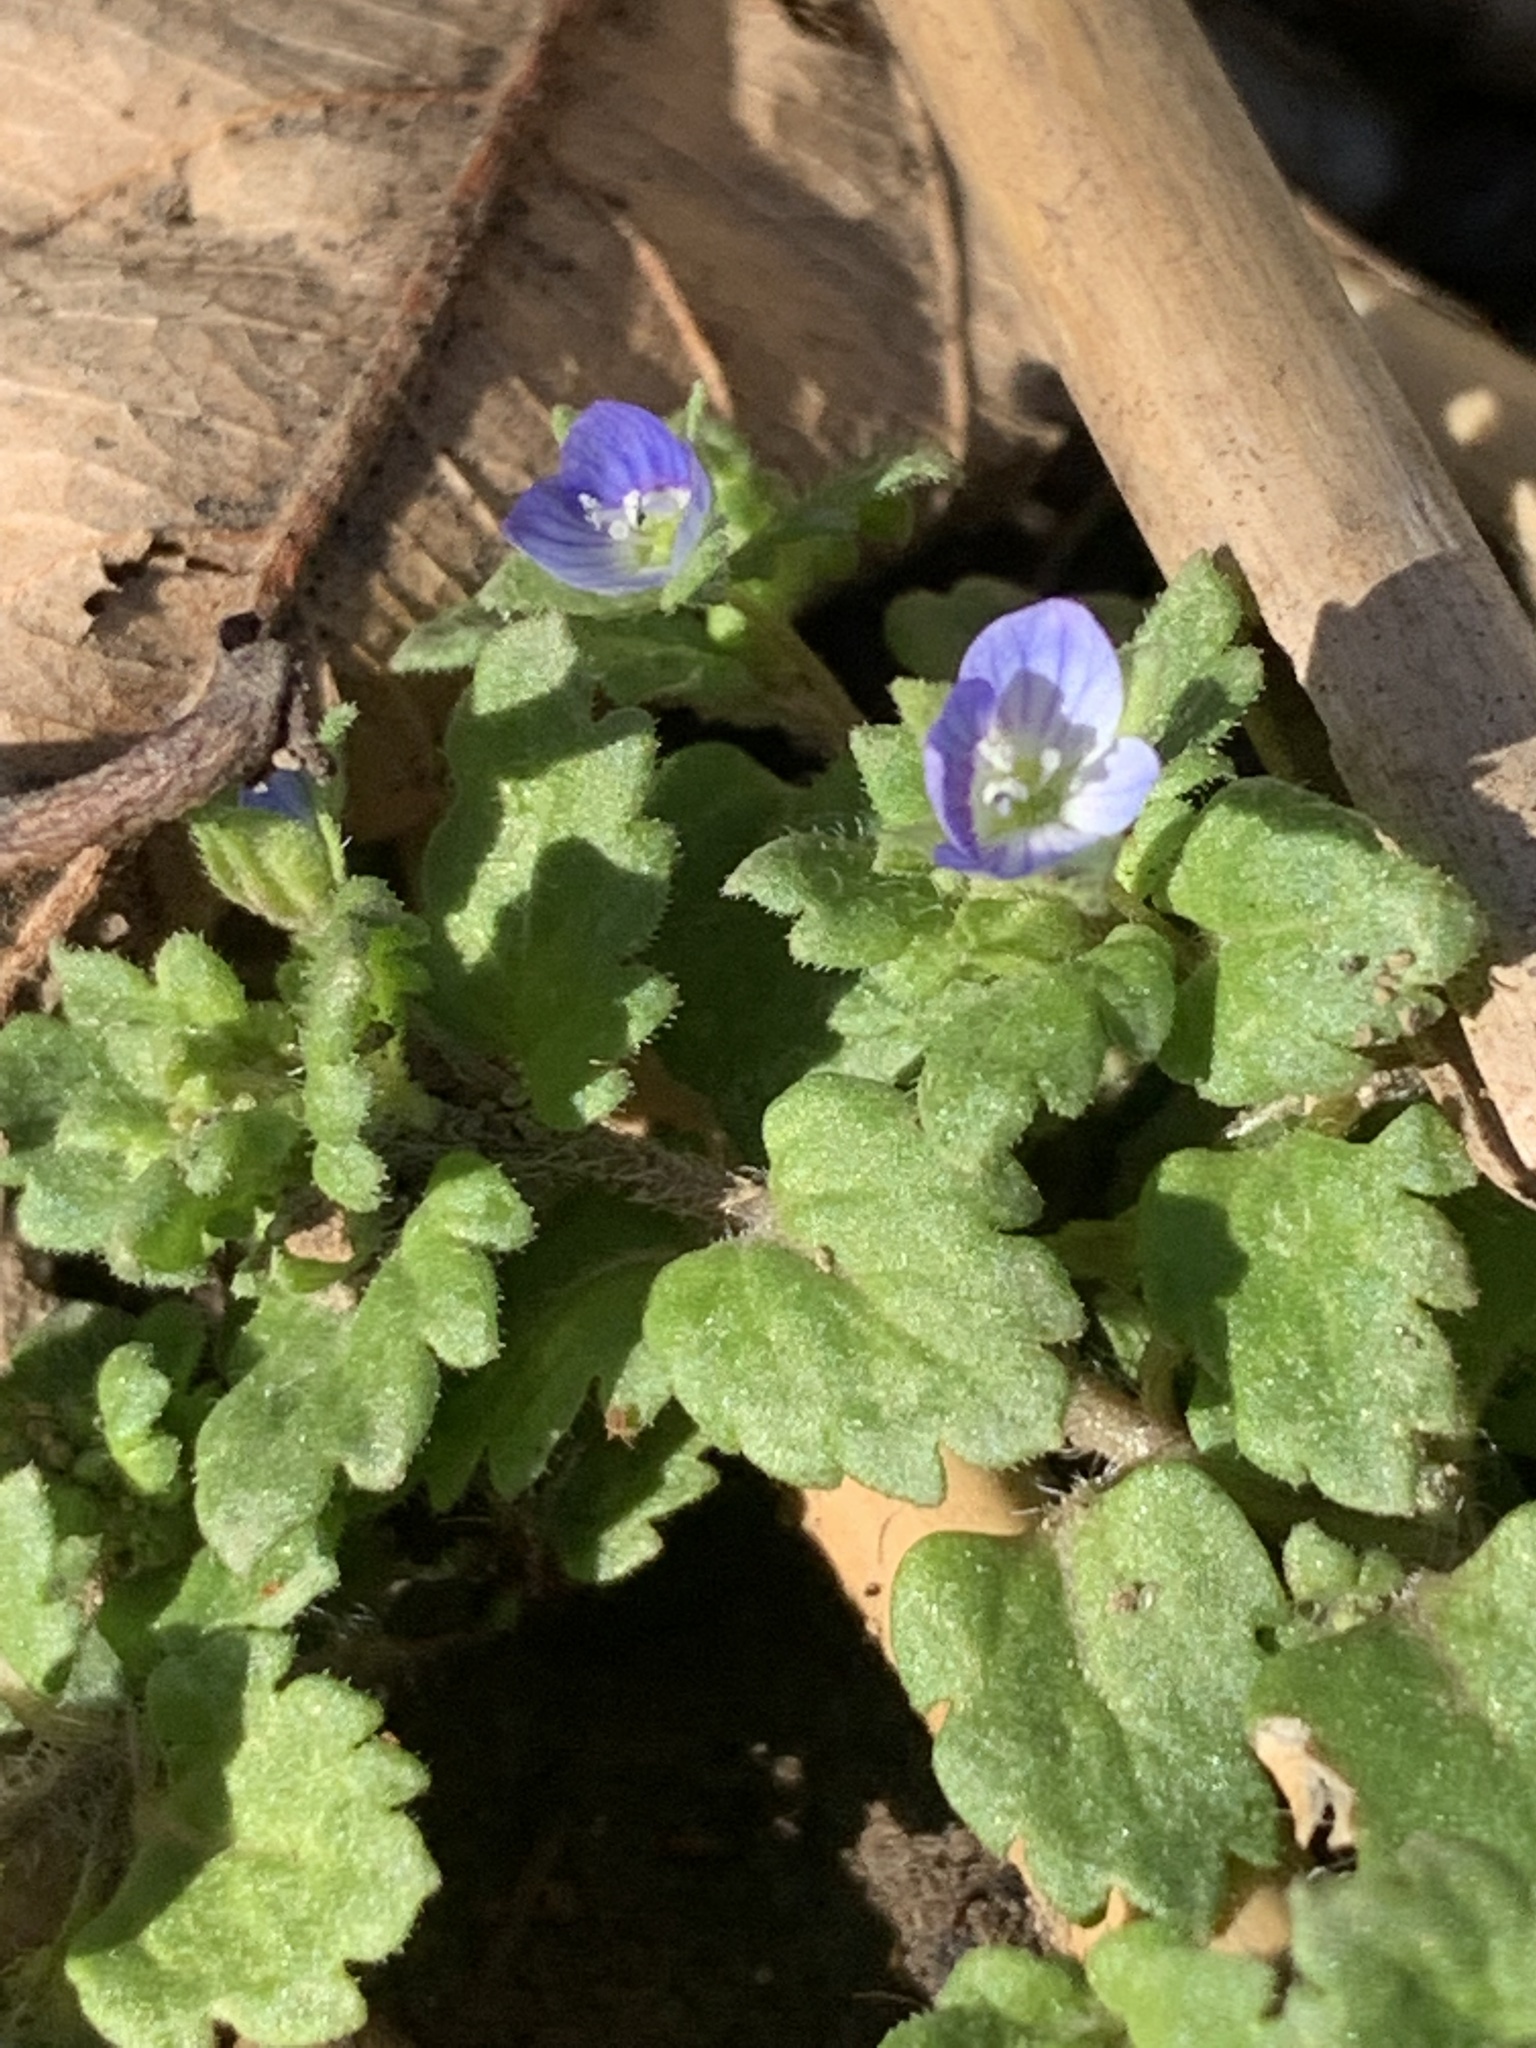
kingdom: Plantae
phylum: Tracheophyta
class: Magnoliopsida
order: Lamiales
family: Plantaginaceae
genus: Veronica
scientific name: Veronica polita
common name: Grey field-speedwell
